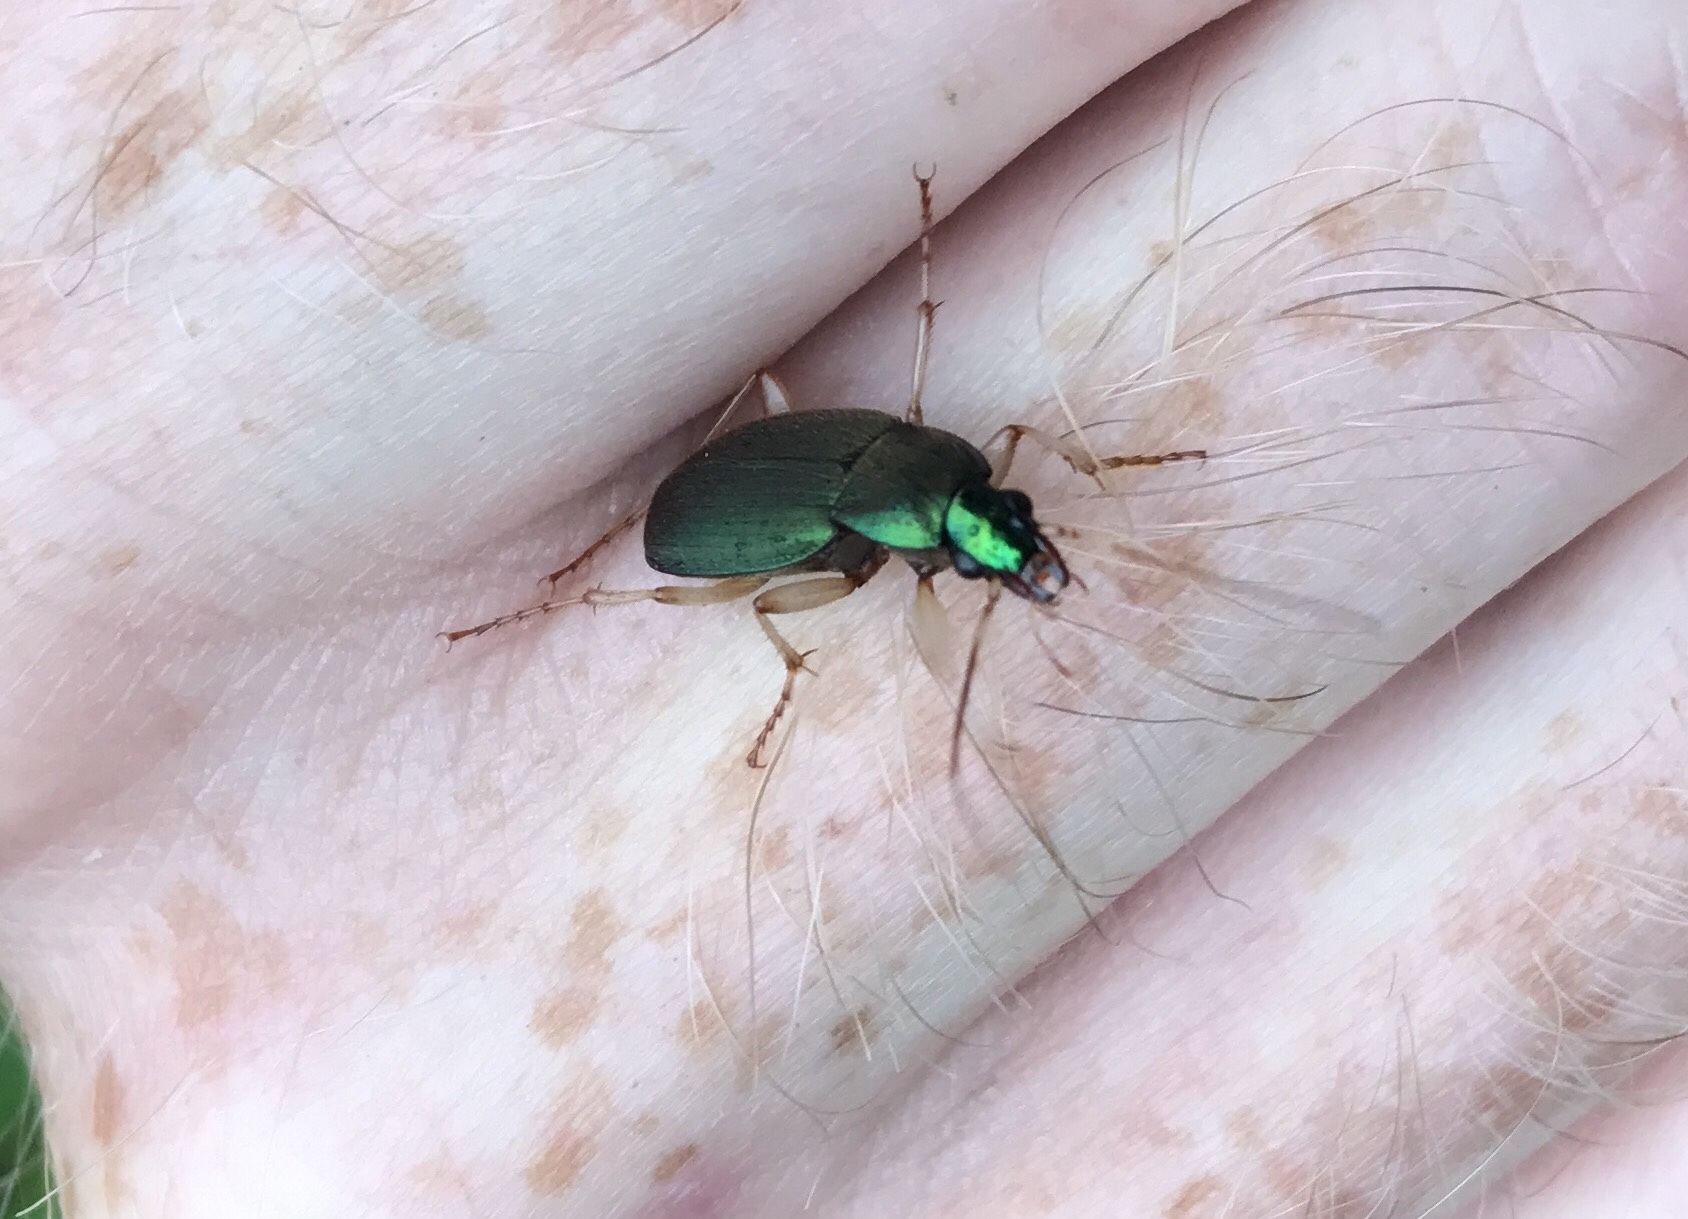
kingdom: Animalia
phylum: Arthropoda
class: Insecta
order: Coleoptera
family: Carabidae
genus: Chlaenius
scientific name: Chlaenius sericeus
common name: Green pubescent ground beetle
